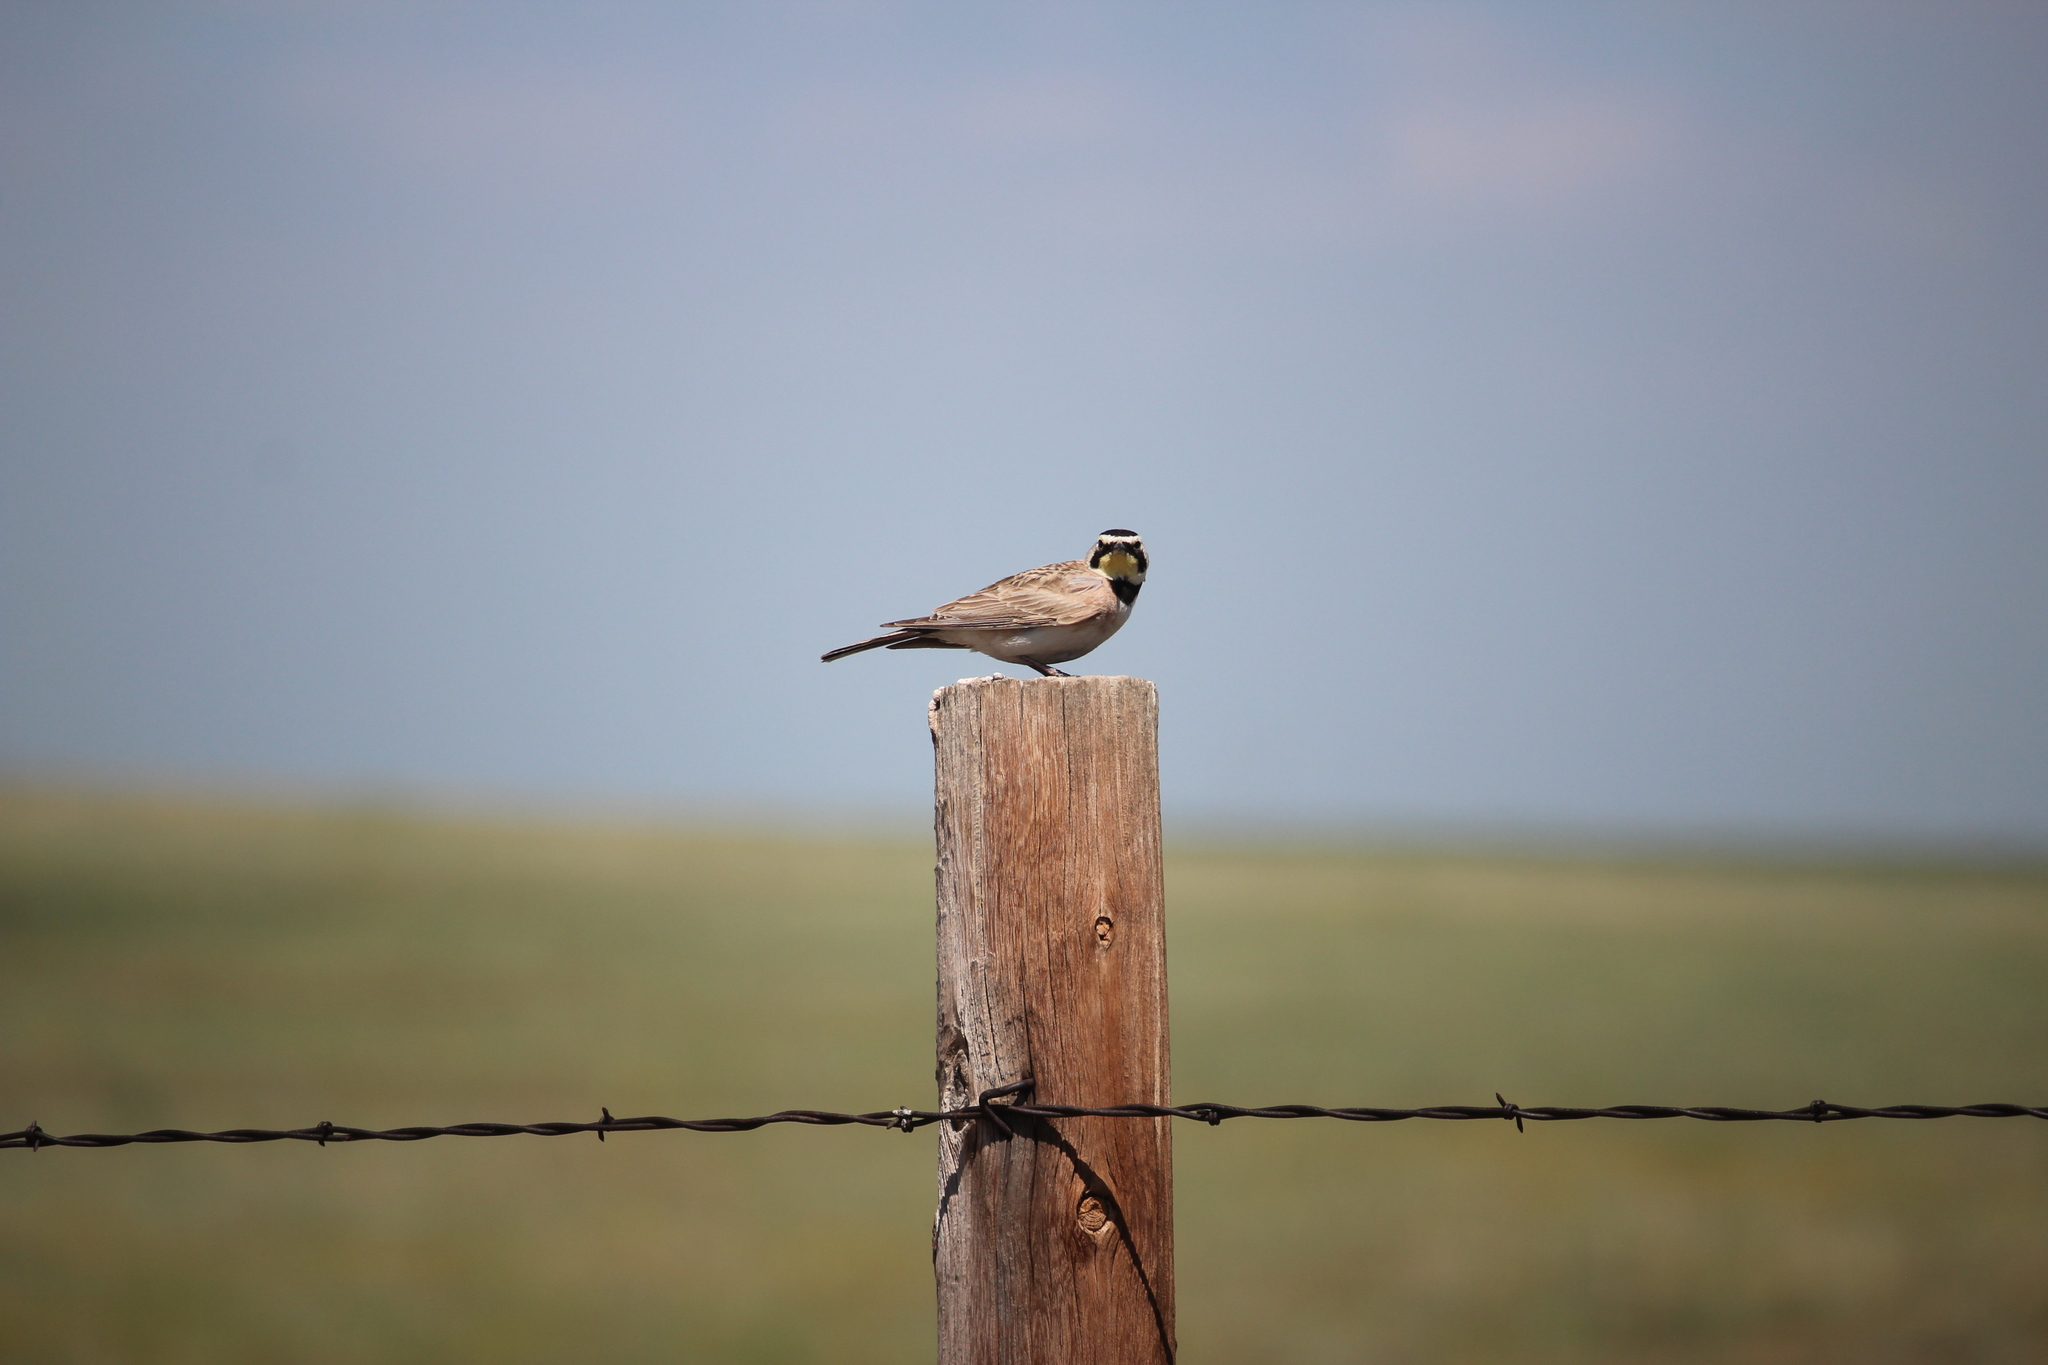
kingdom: Animalia
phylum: Chordata
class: Aves
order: Passeriformes
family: Alaudidae
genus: Eremophila
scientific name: Eremophila alpestris
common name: Horned lark
